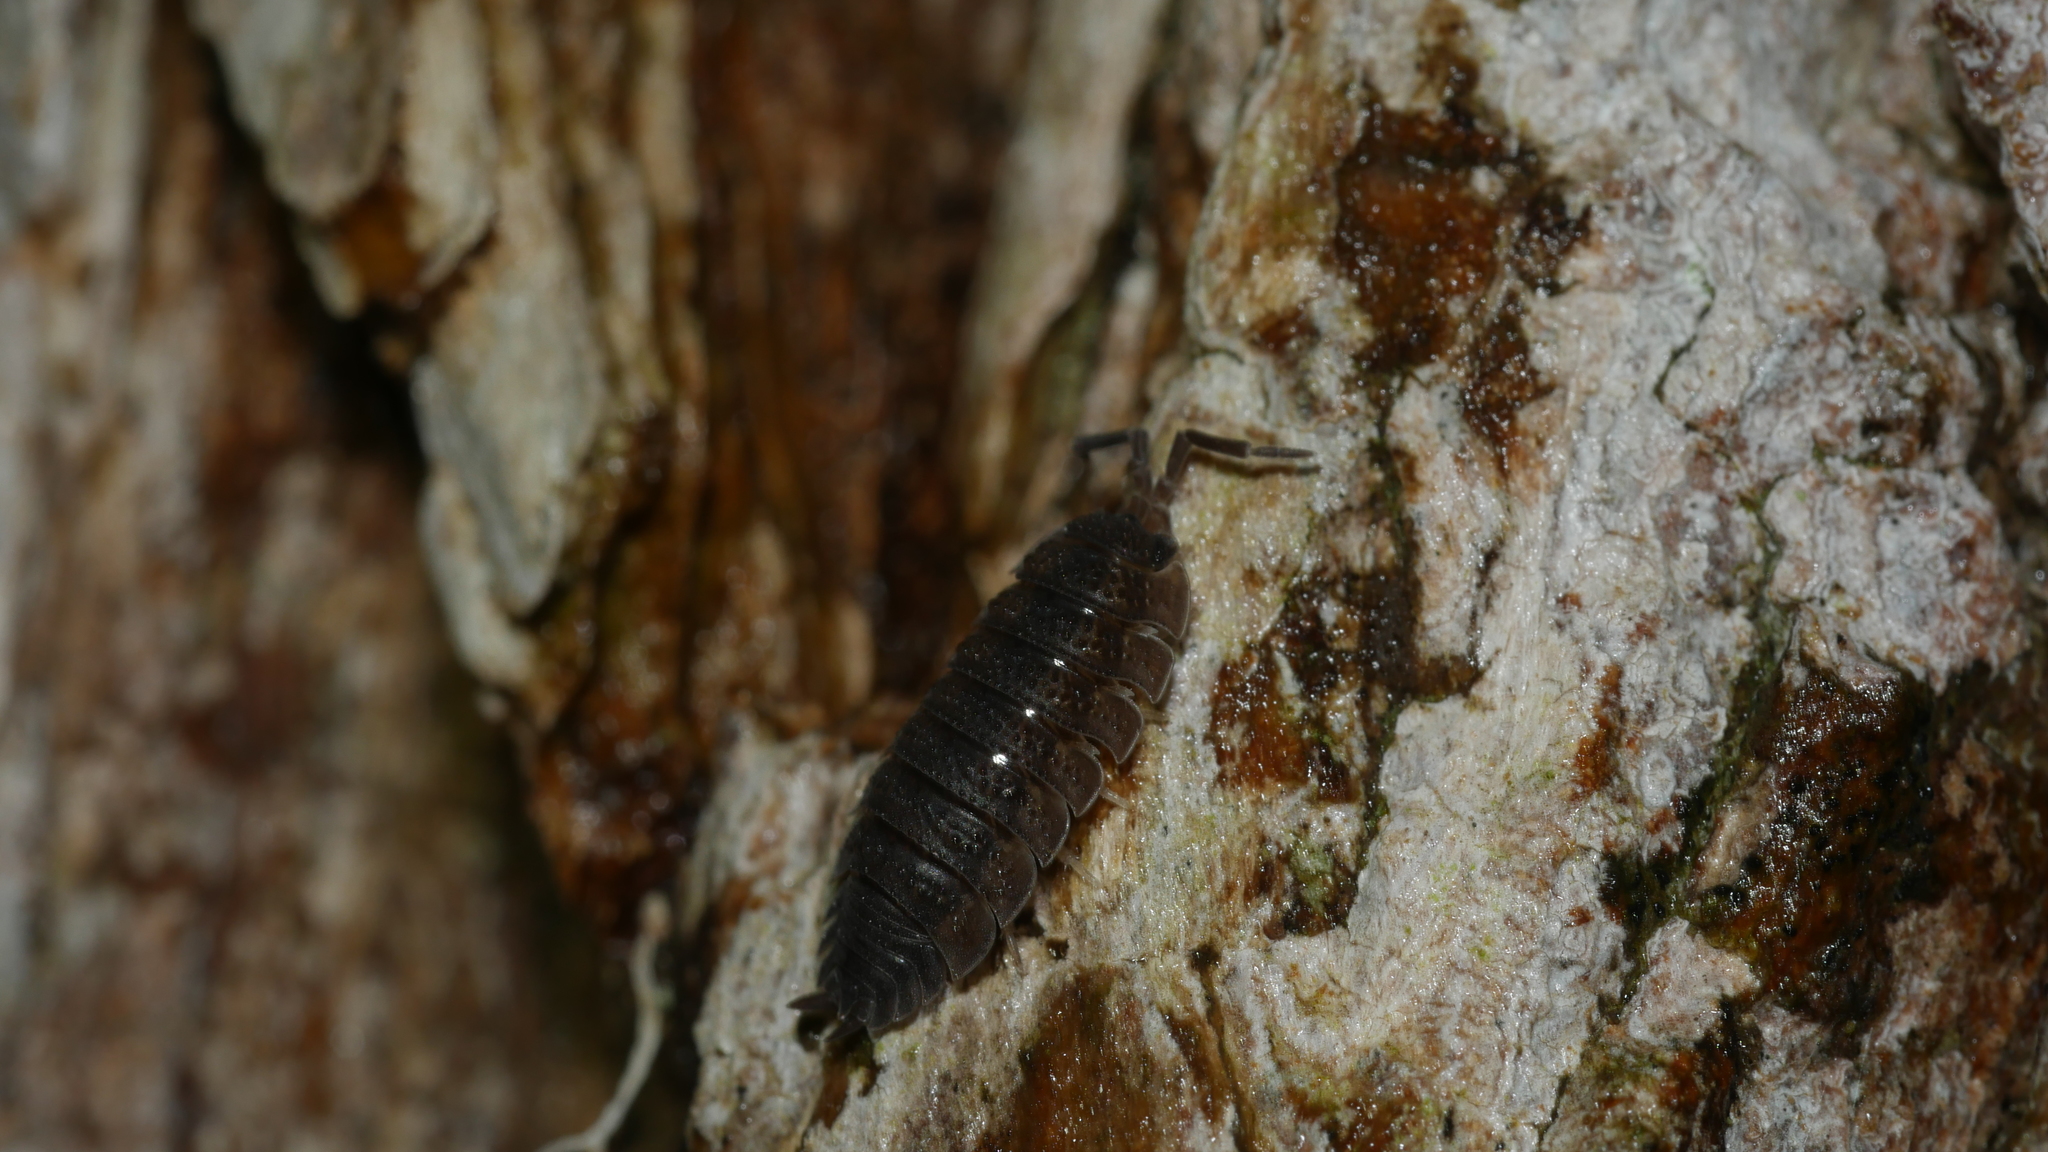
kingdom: Animalia
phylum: Arthropoda
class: Malacostraca
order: Isopoda
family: Porcellionidae
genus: Porcellio
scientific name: Porcellio scaber
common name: Common rough woodlouse
